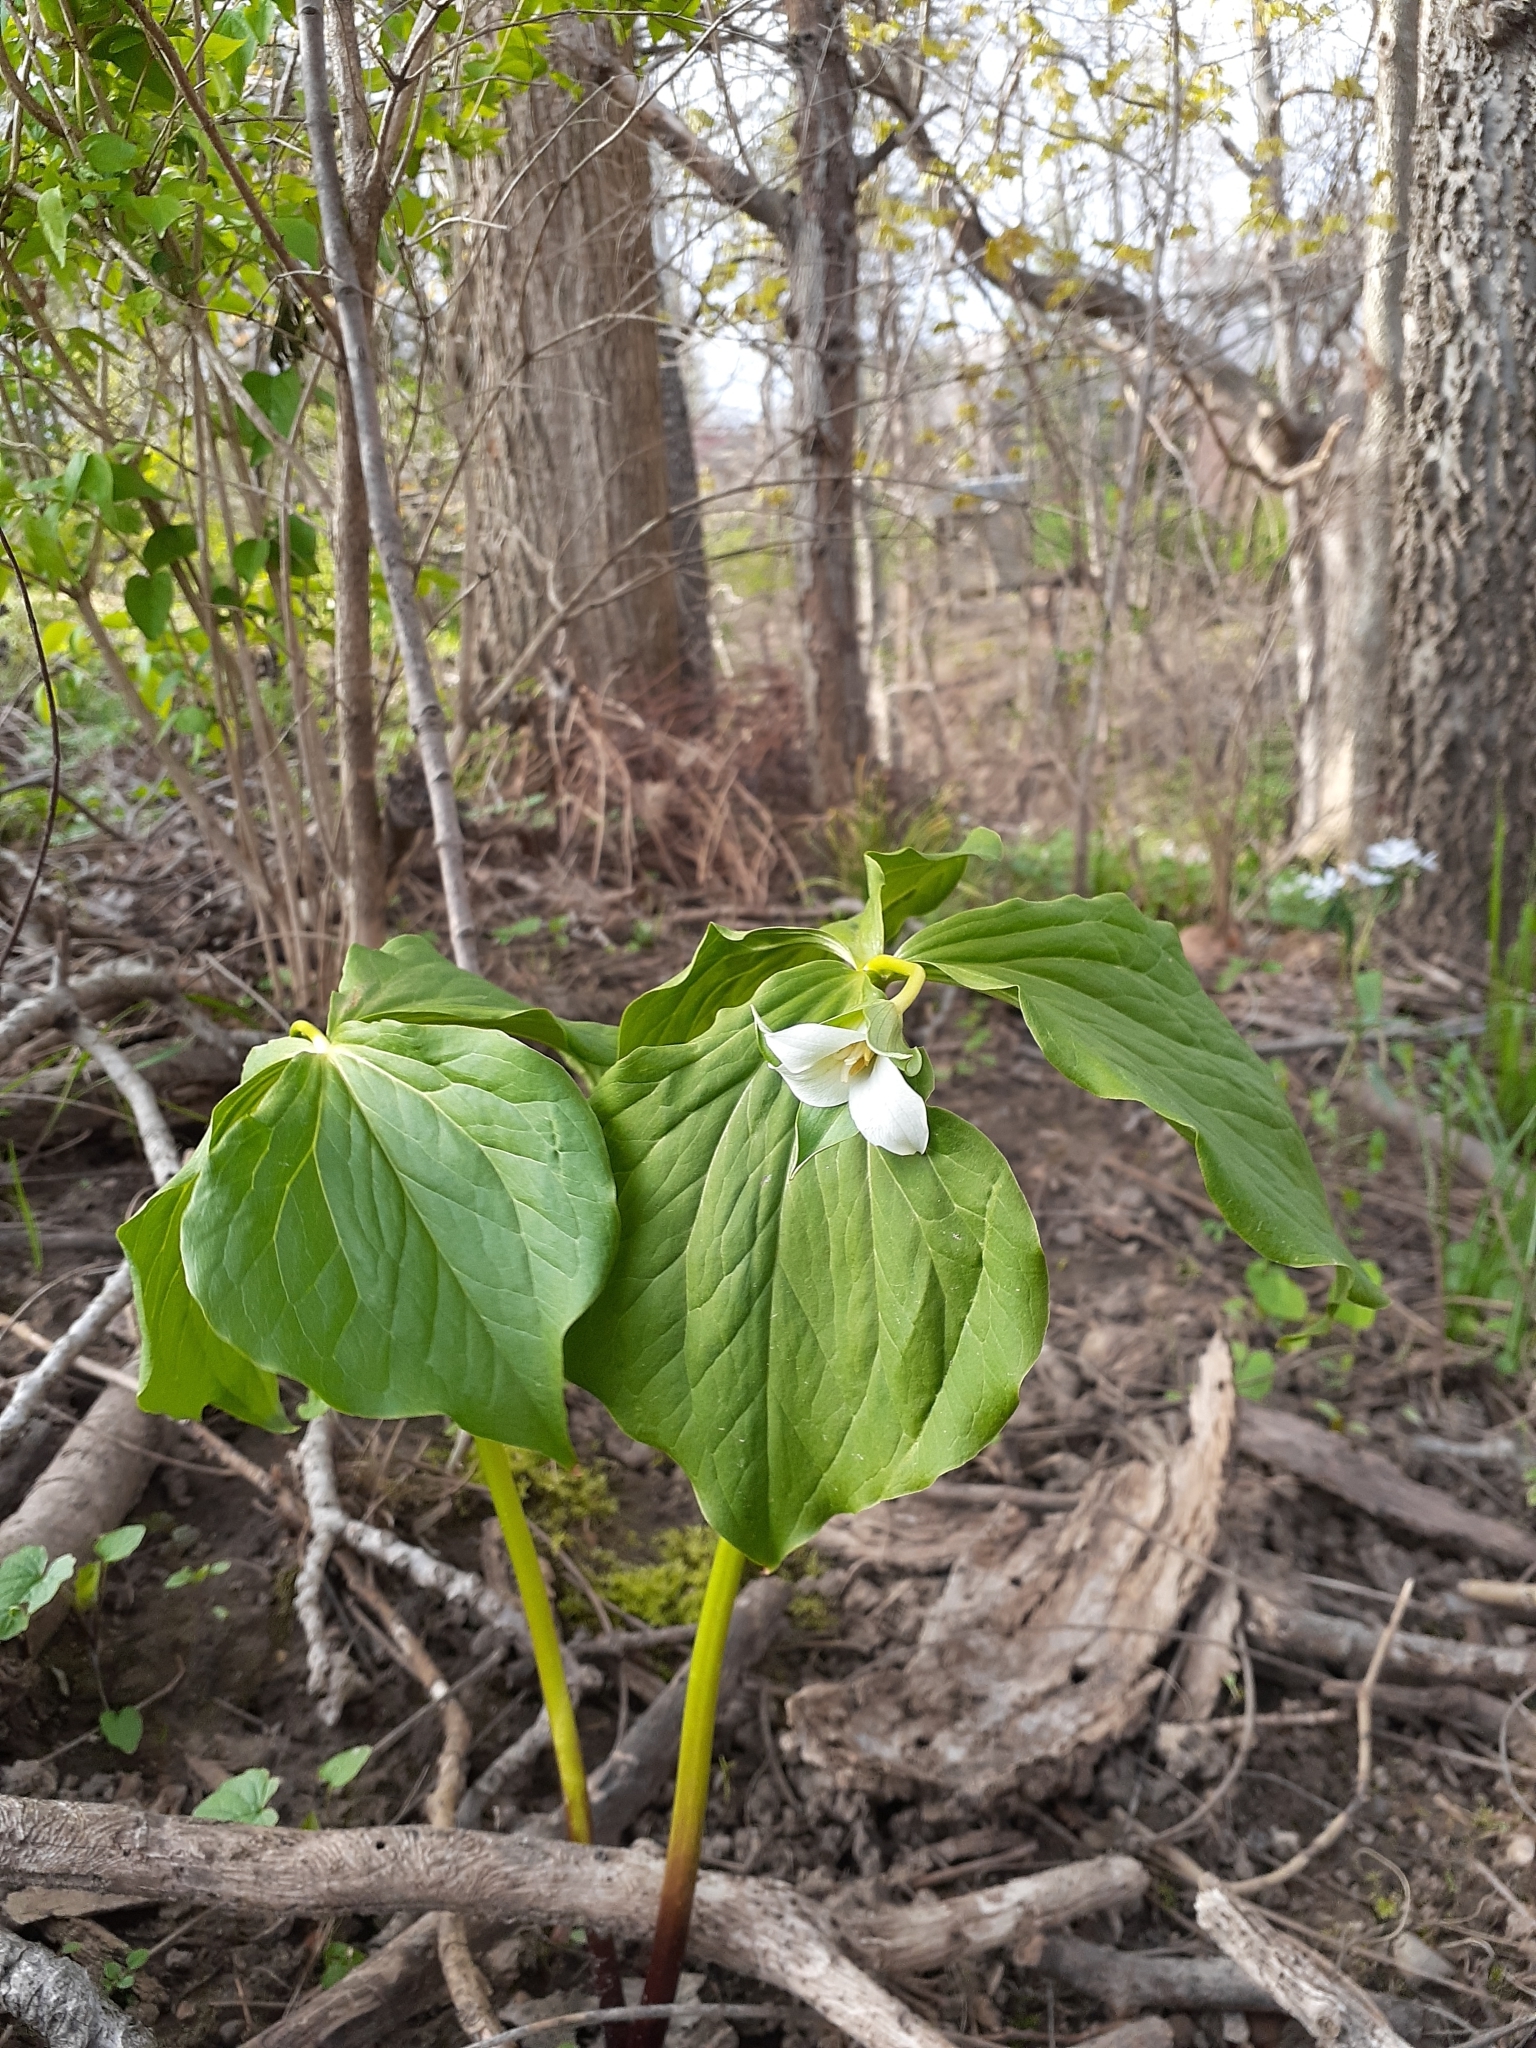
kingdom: Plantae
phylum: Tracheophyta
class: Liliopsida
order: Liliales
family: Melanthiaceae
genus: Trillium
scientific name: Trillium flexipes
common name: Drooping trillium
